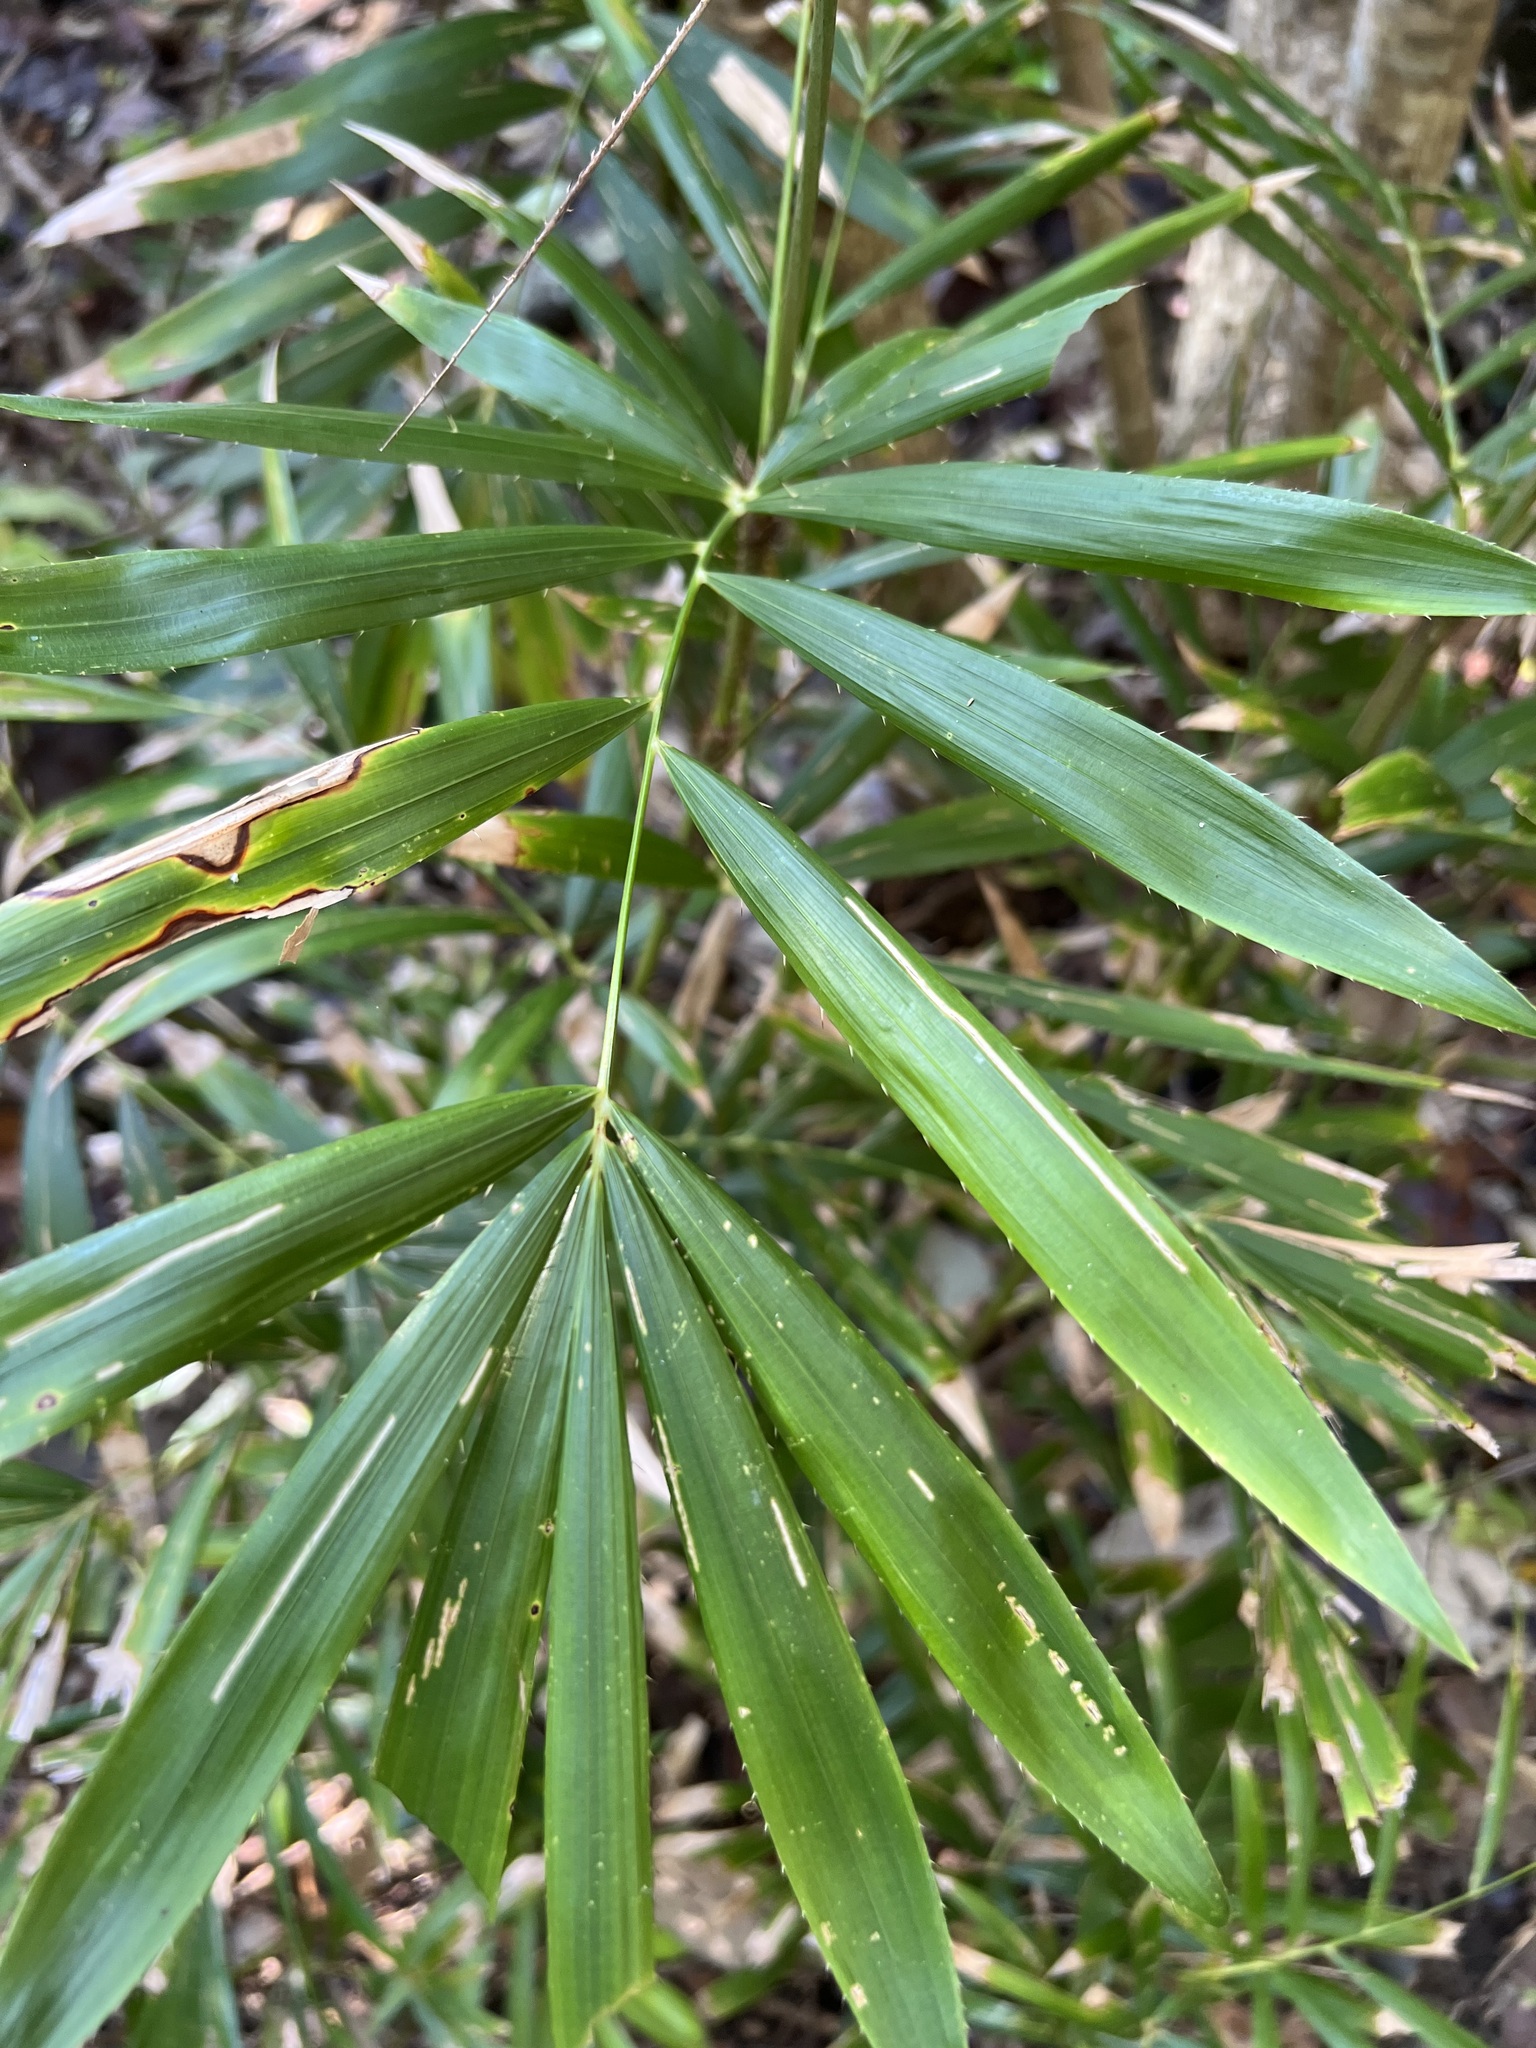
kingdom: Plantae
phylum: Tracheophyta
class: Liliopsida
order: Arecales
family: Arecaceae
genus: Calamus
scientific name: Calamus muelleri
